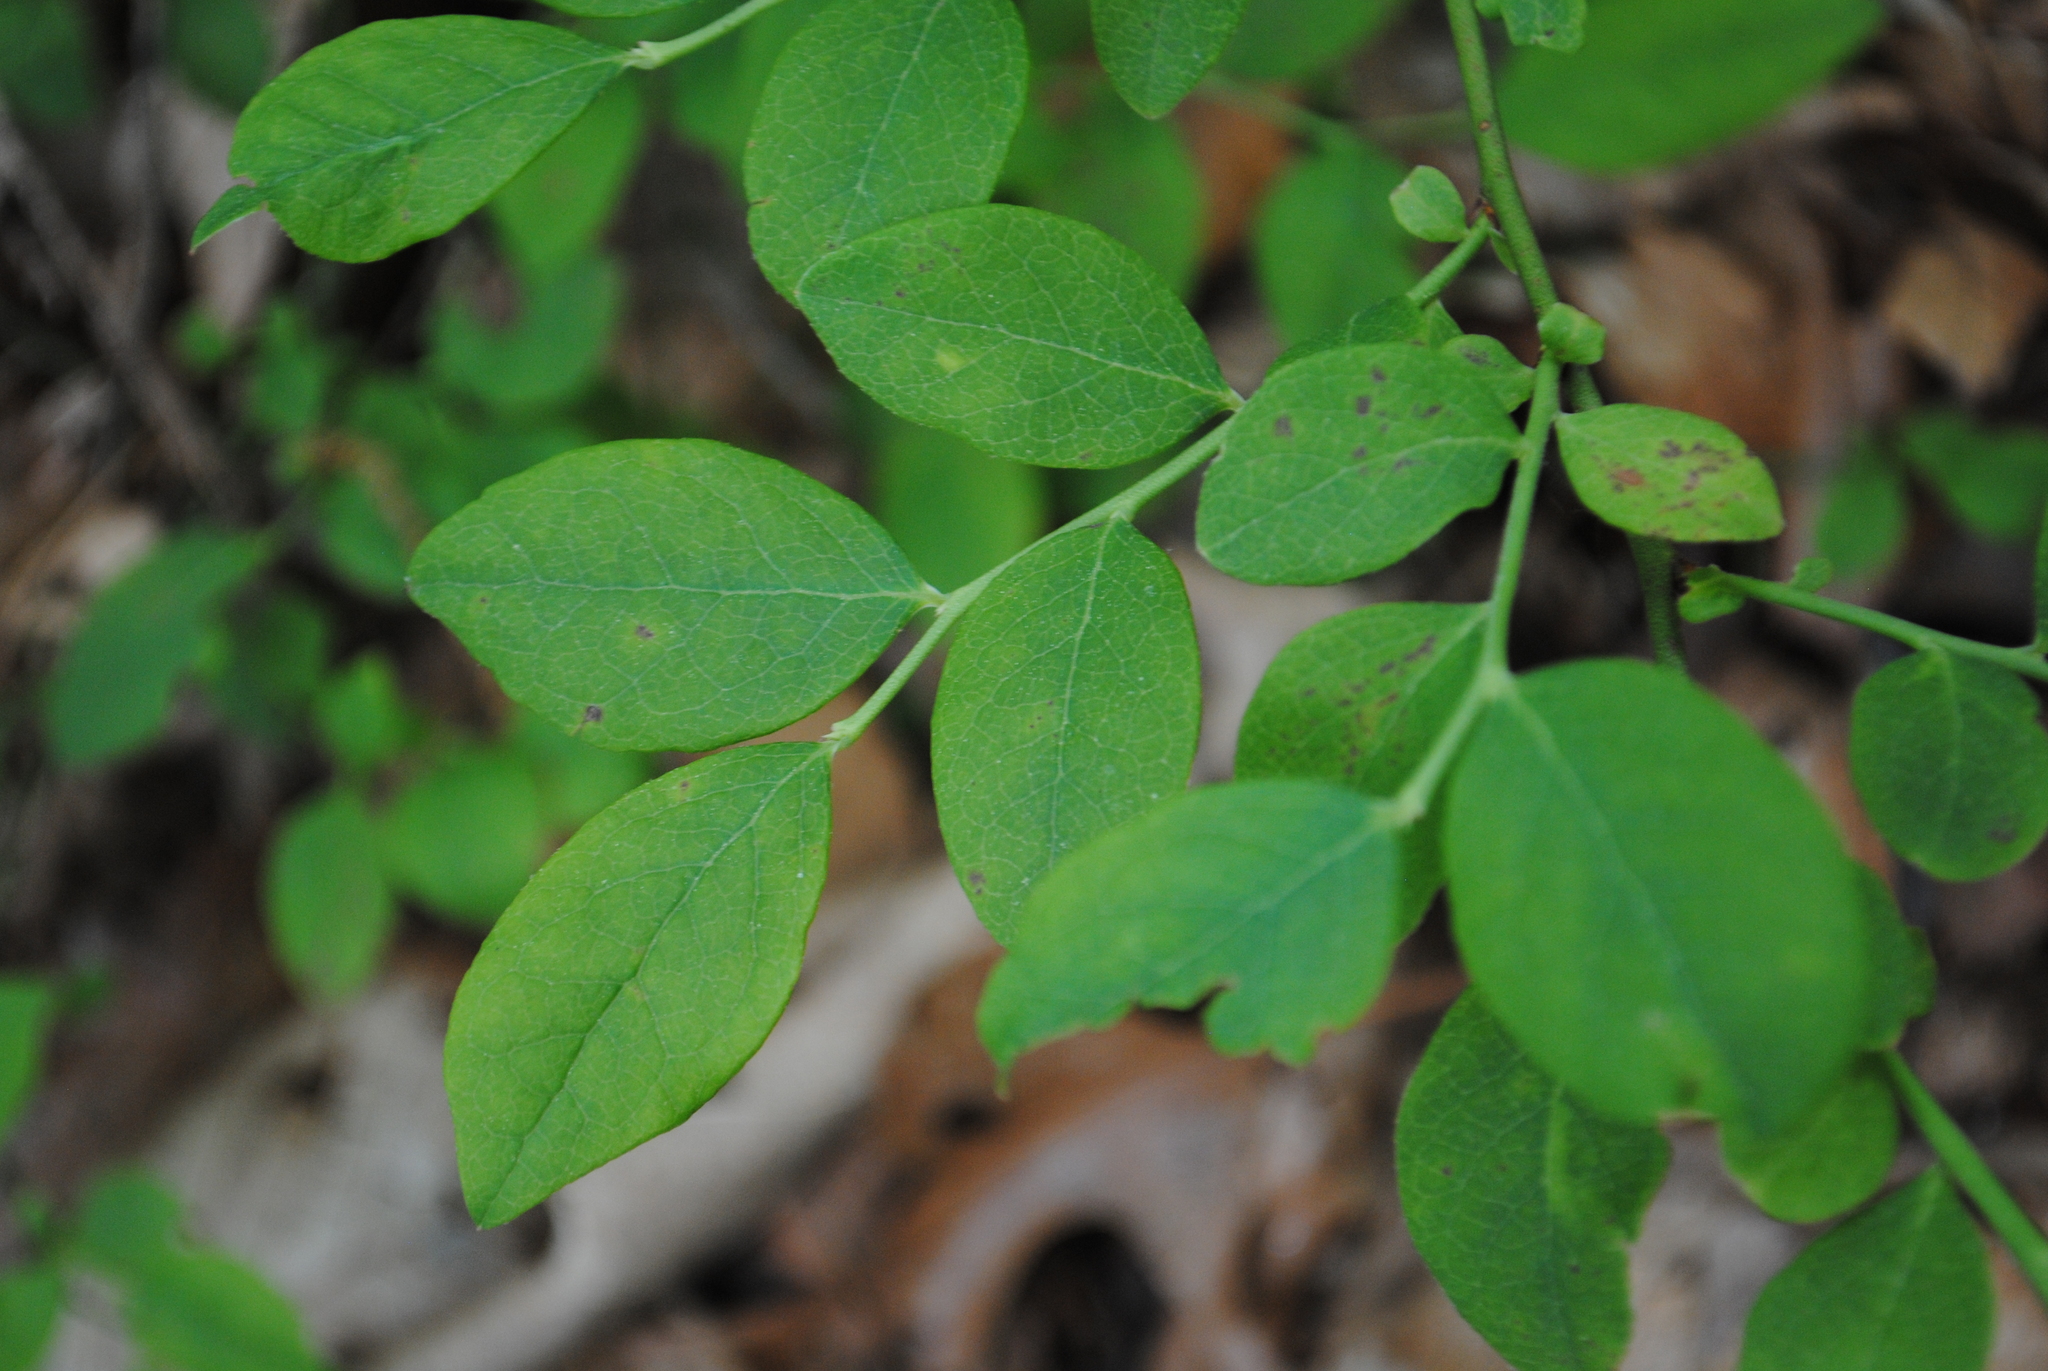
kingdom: Plantae
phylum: Tracheophyta
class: Magnoliopsida
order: Ericales
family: Ericaceae
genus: Vaccinium
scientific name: Vaccinium pallidum
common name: Blue ridge blueberry
